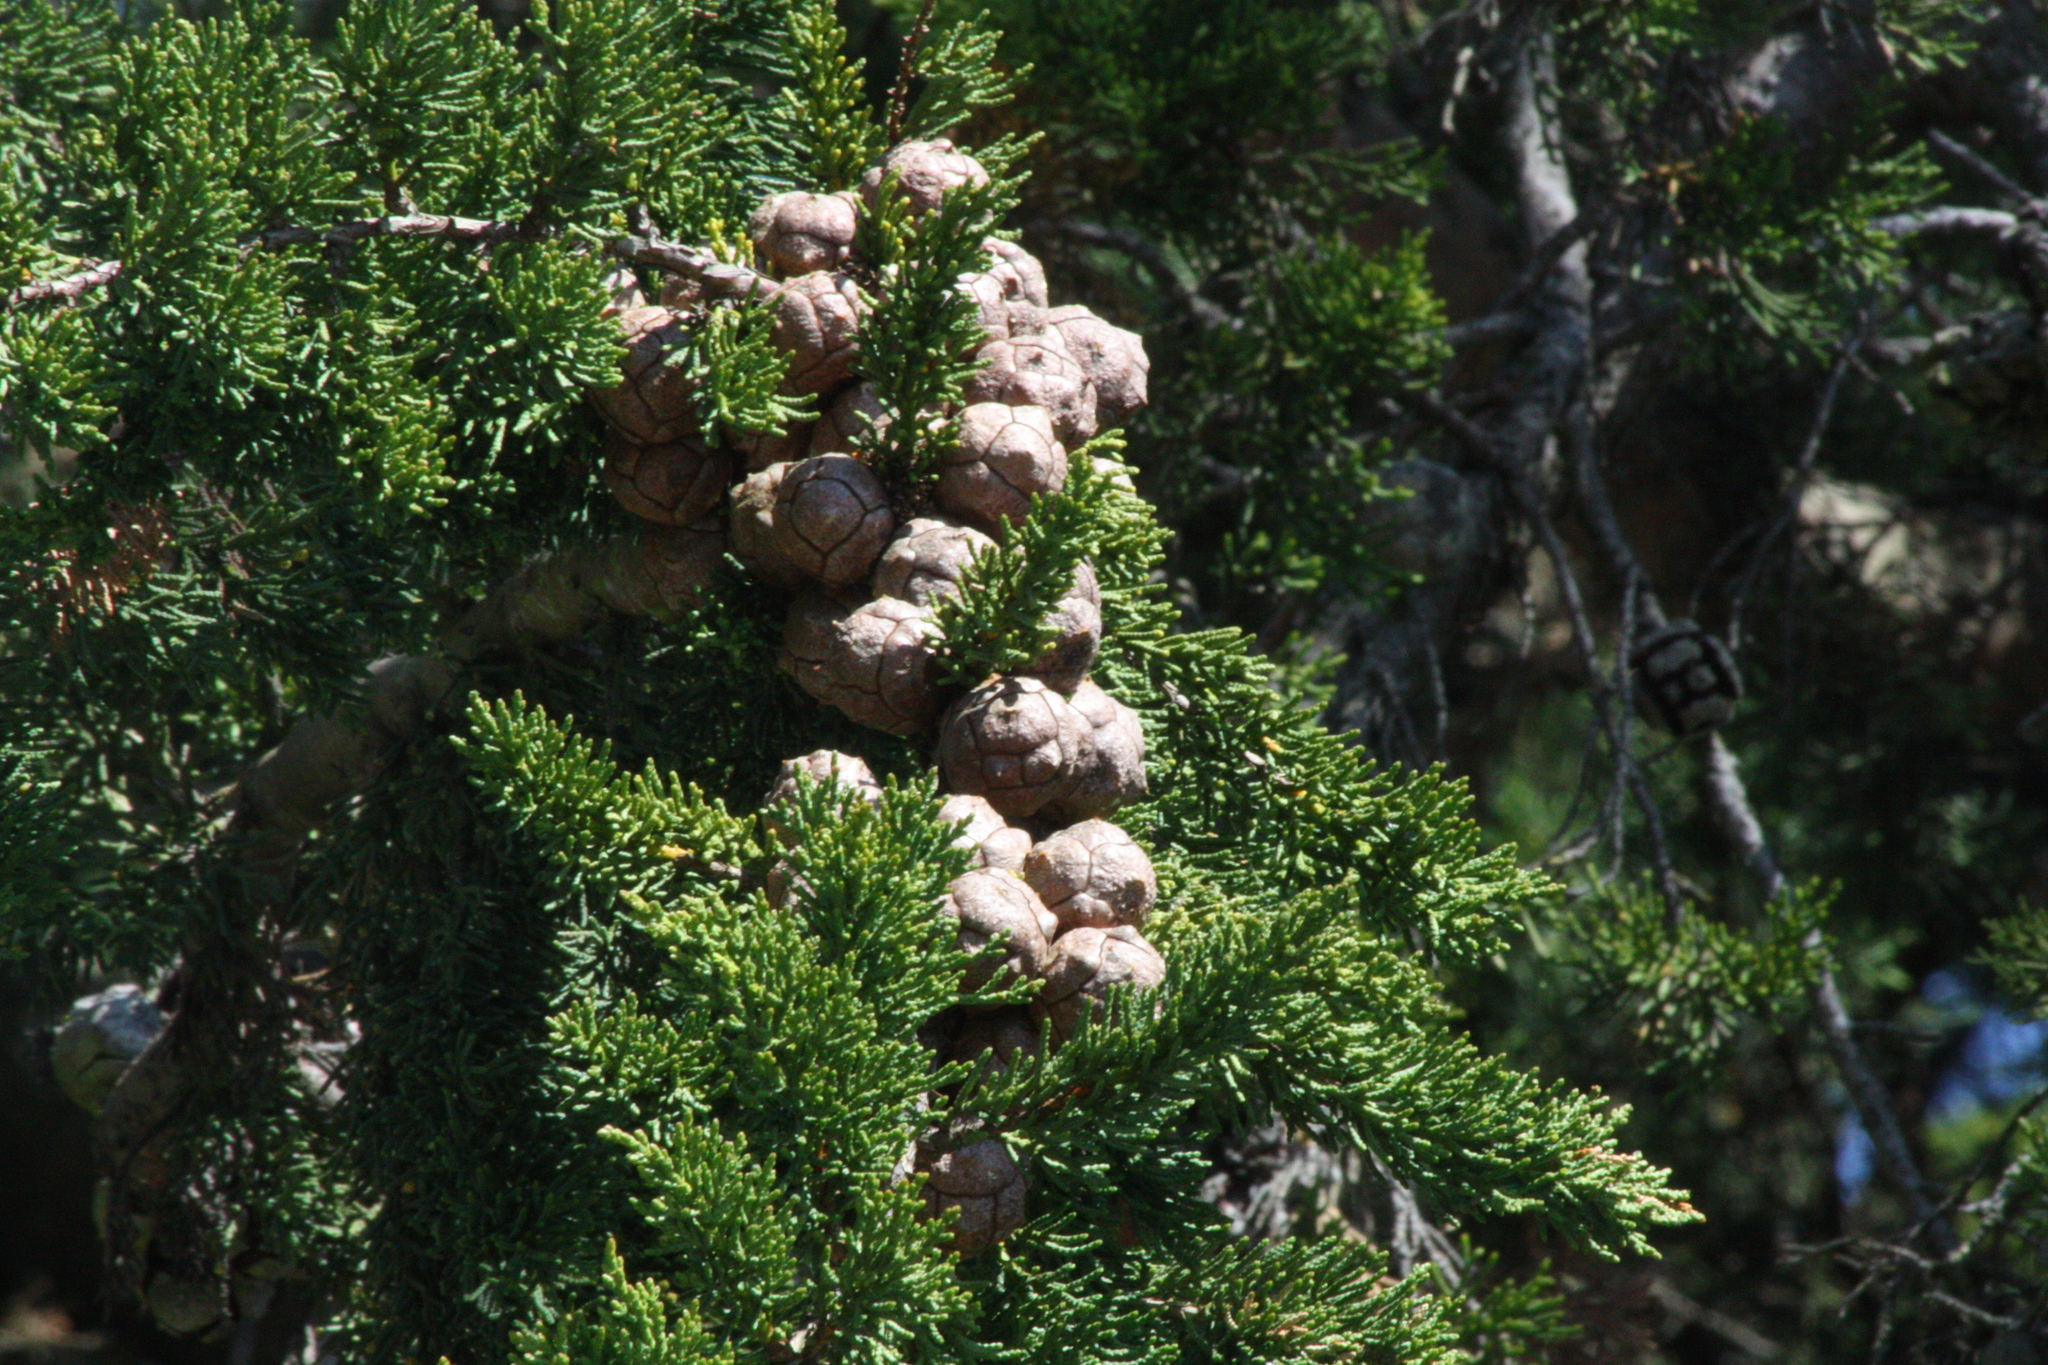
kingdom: Plantae
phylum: Tracheophyta
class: Pinopsida
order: Pinales
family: Cupressaceae
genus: Cupressus
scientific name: Cupressus macrocarpa
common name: Monterey cypress
